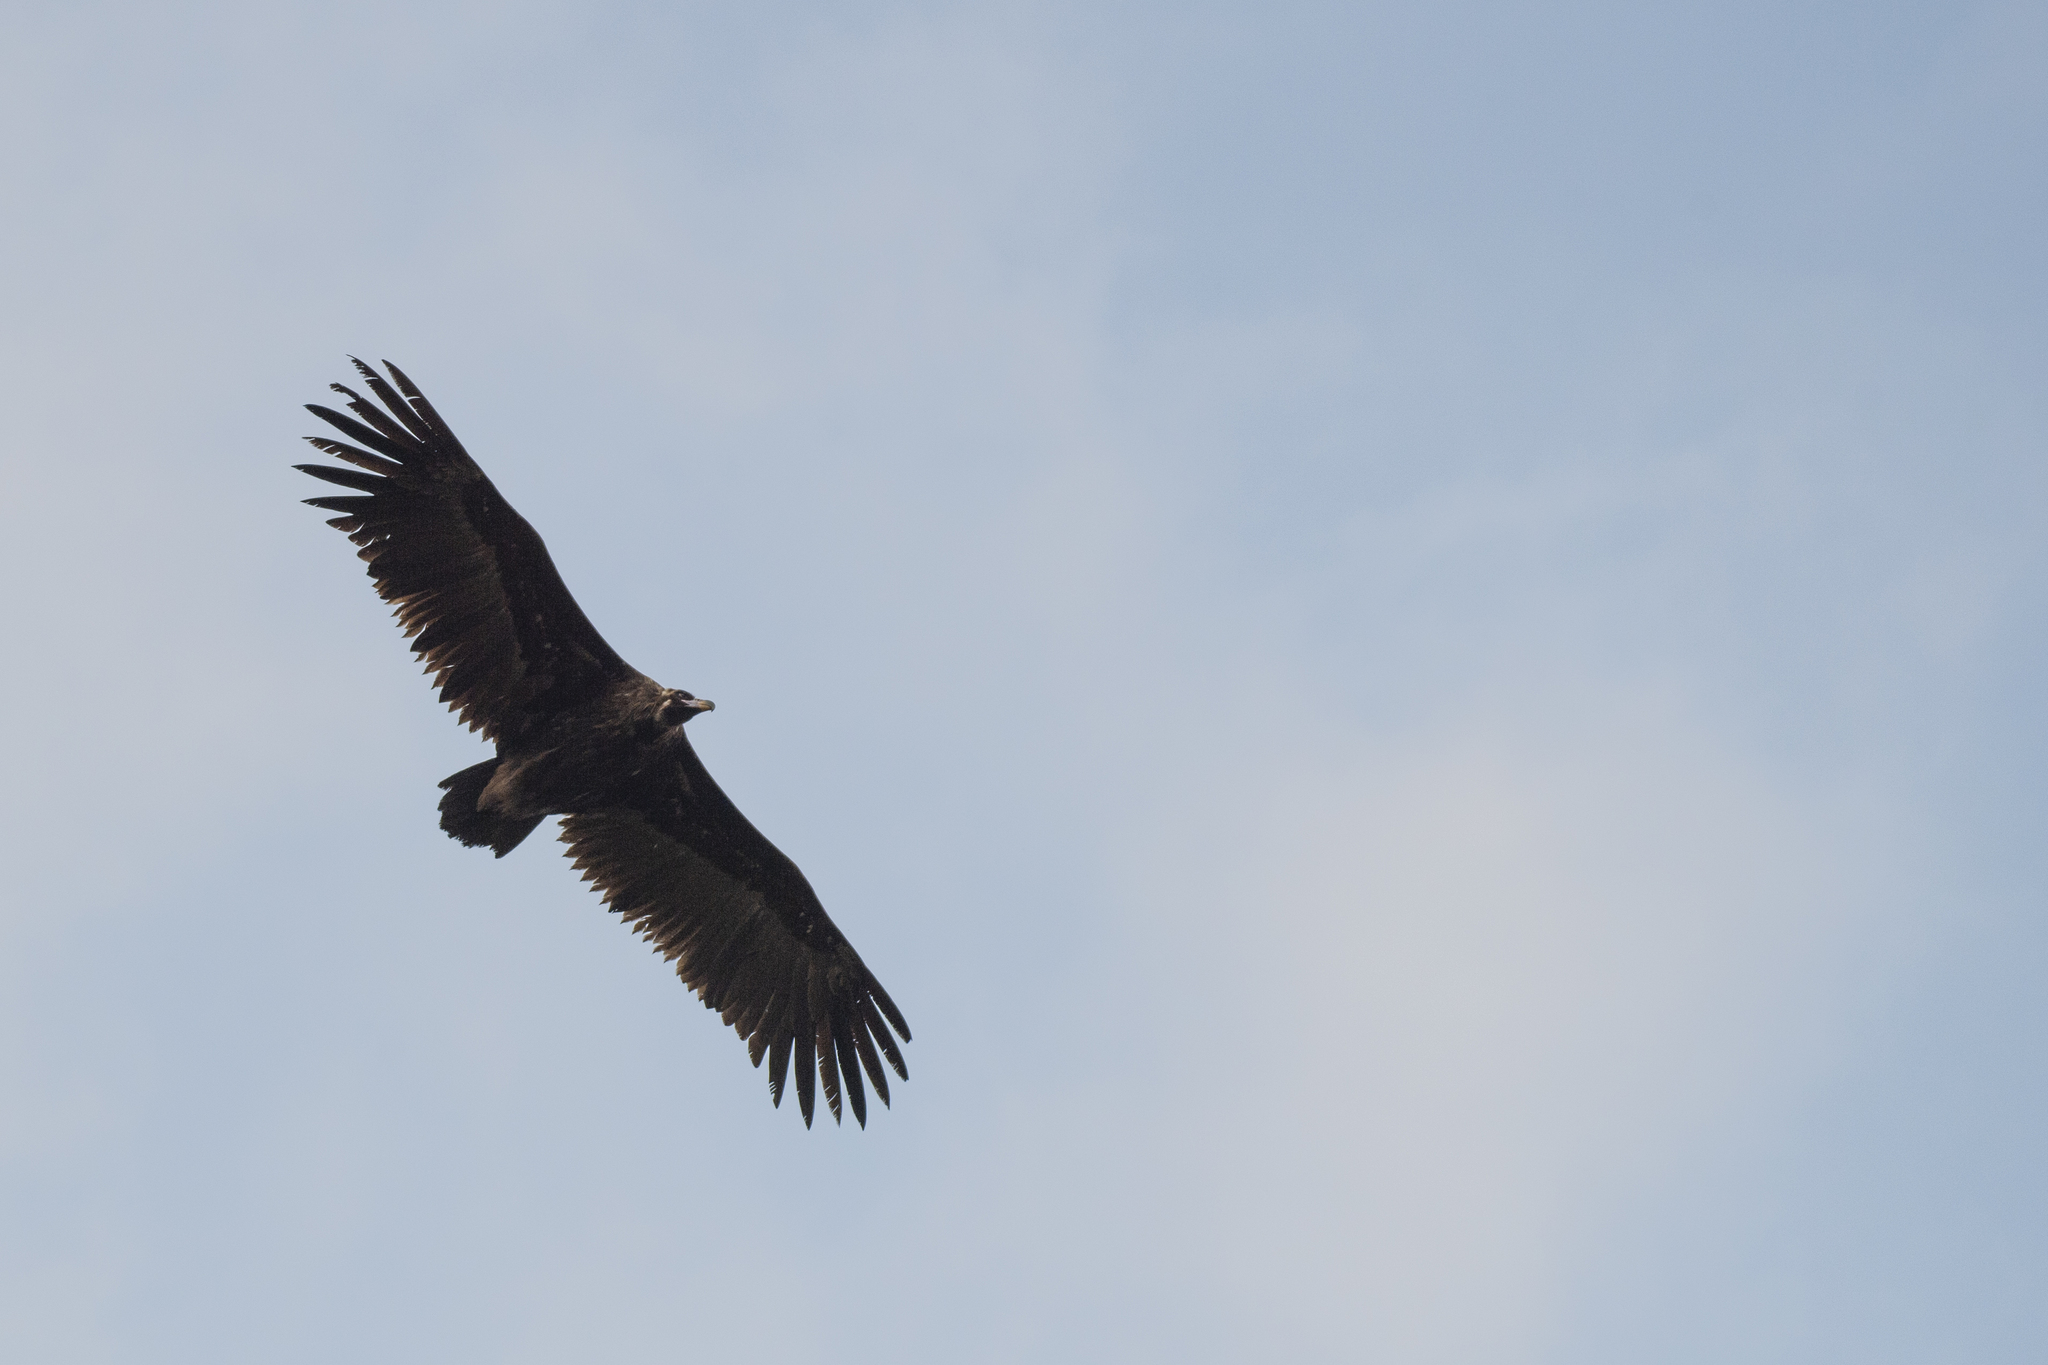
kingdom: Animalia
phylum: Chordata
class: Aves
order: Accipitriformes
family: Accipitridae
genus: Aegypius
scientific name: Aegypius monachus
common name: Cinereous vulture
